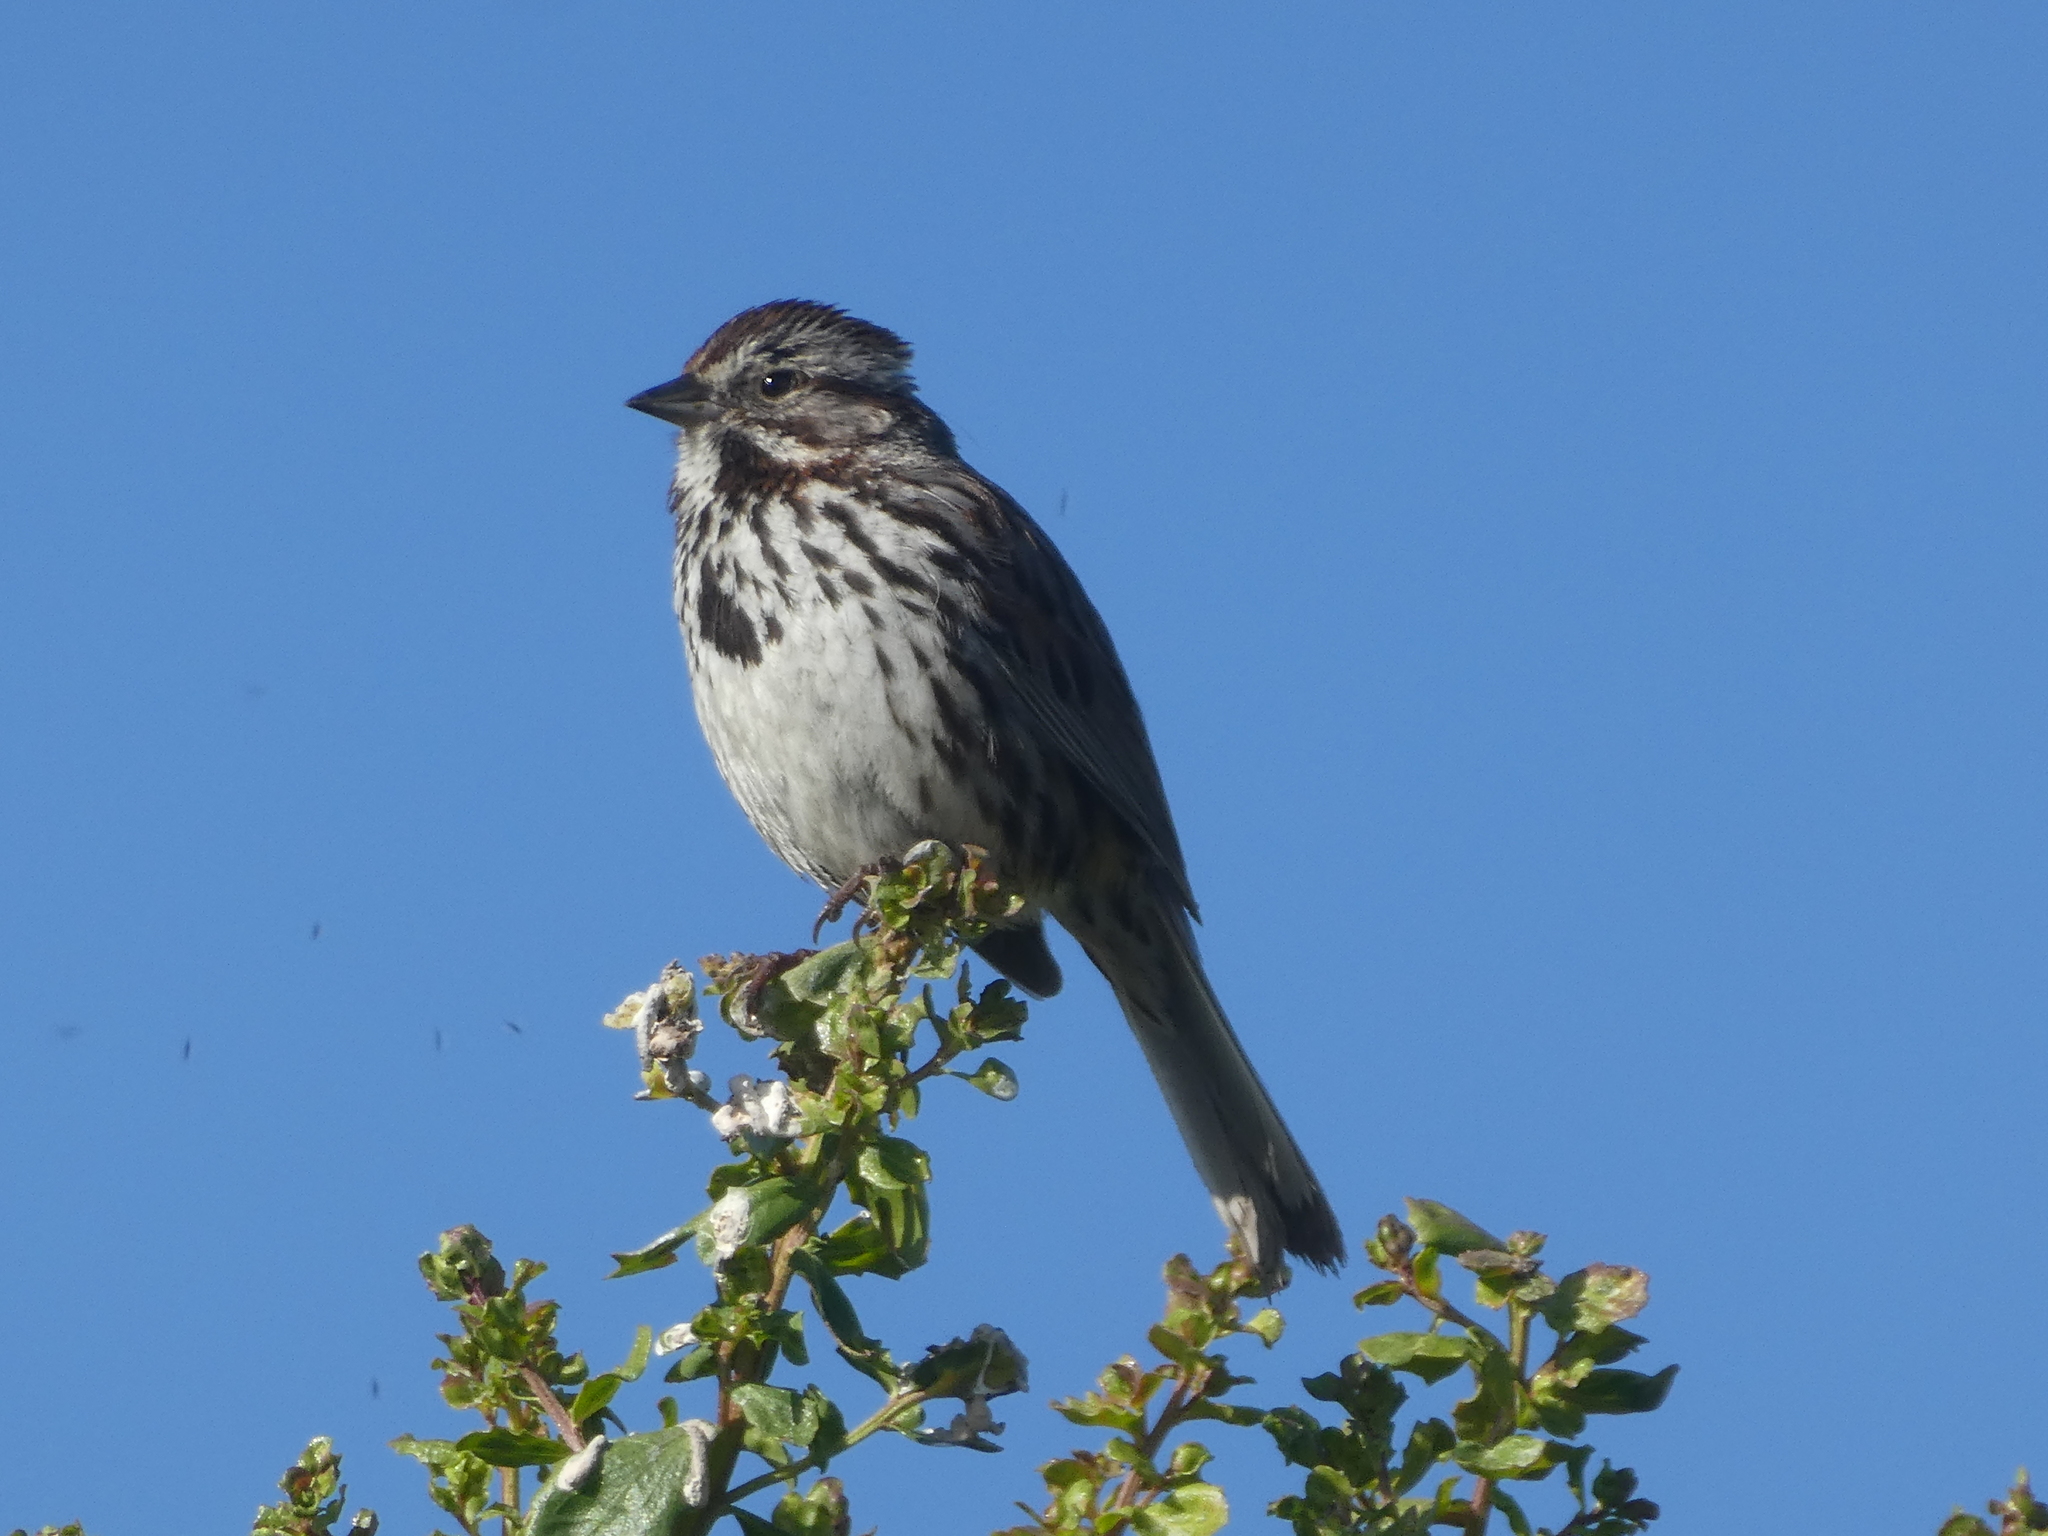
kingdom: Animalia
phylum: Chordata
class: Aves
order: Passeriformes
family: Passerellidae
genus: Melospiza
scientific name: Melospiza melodia
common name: Song sparrow
